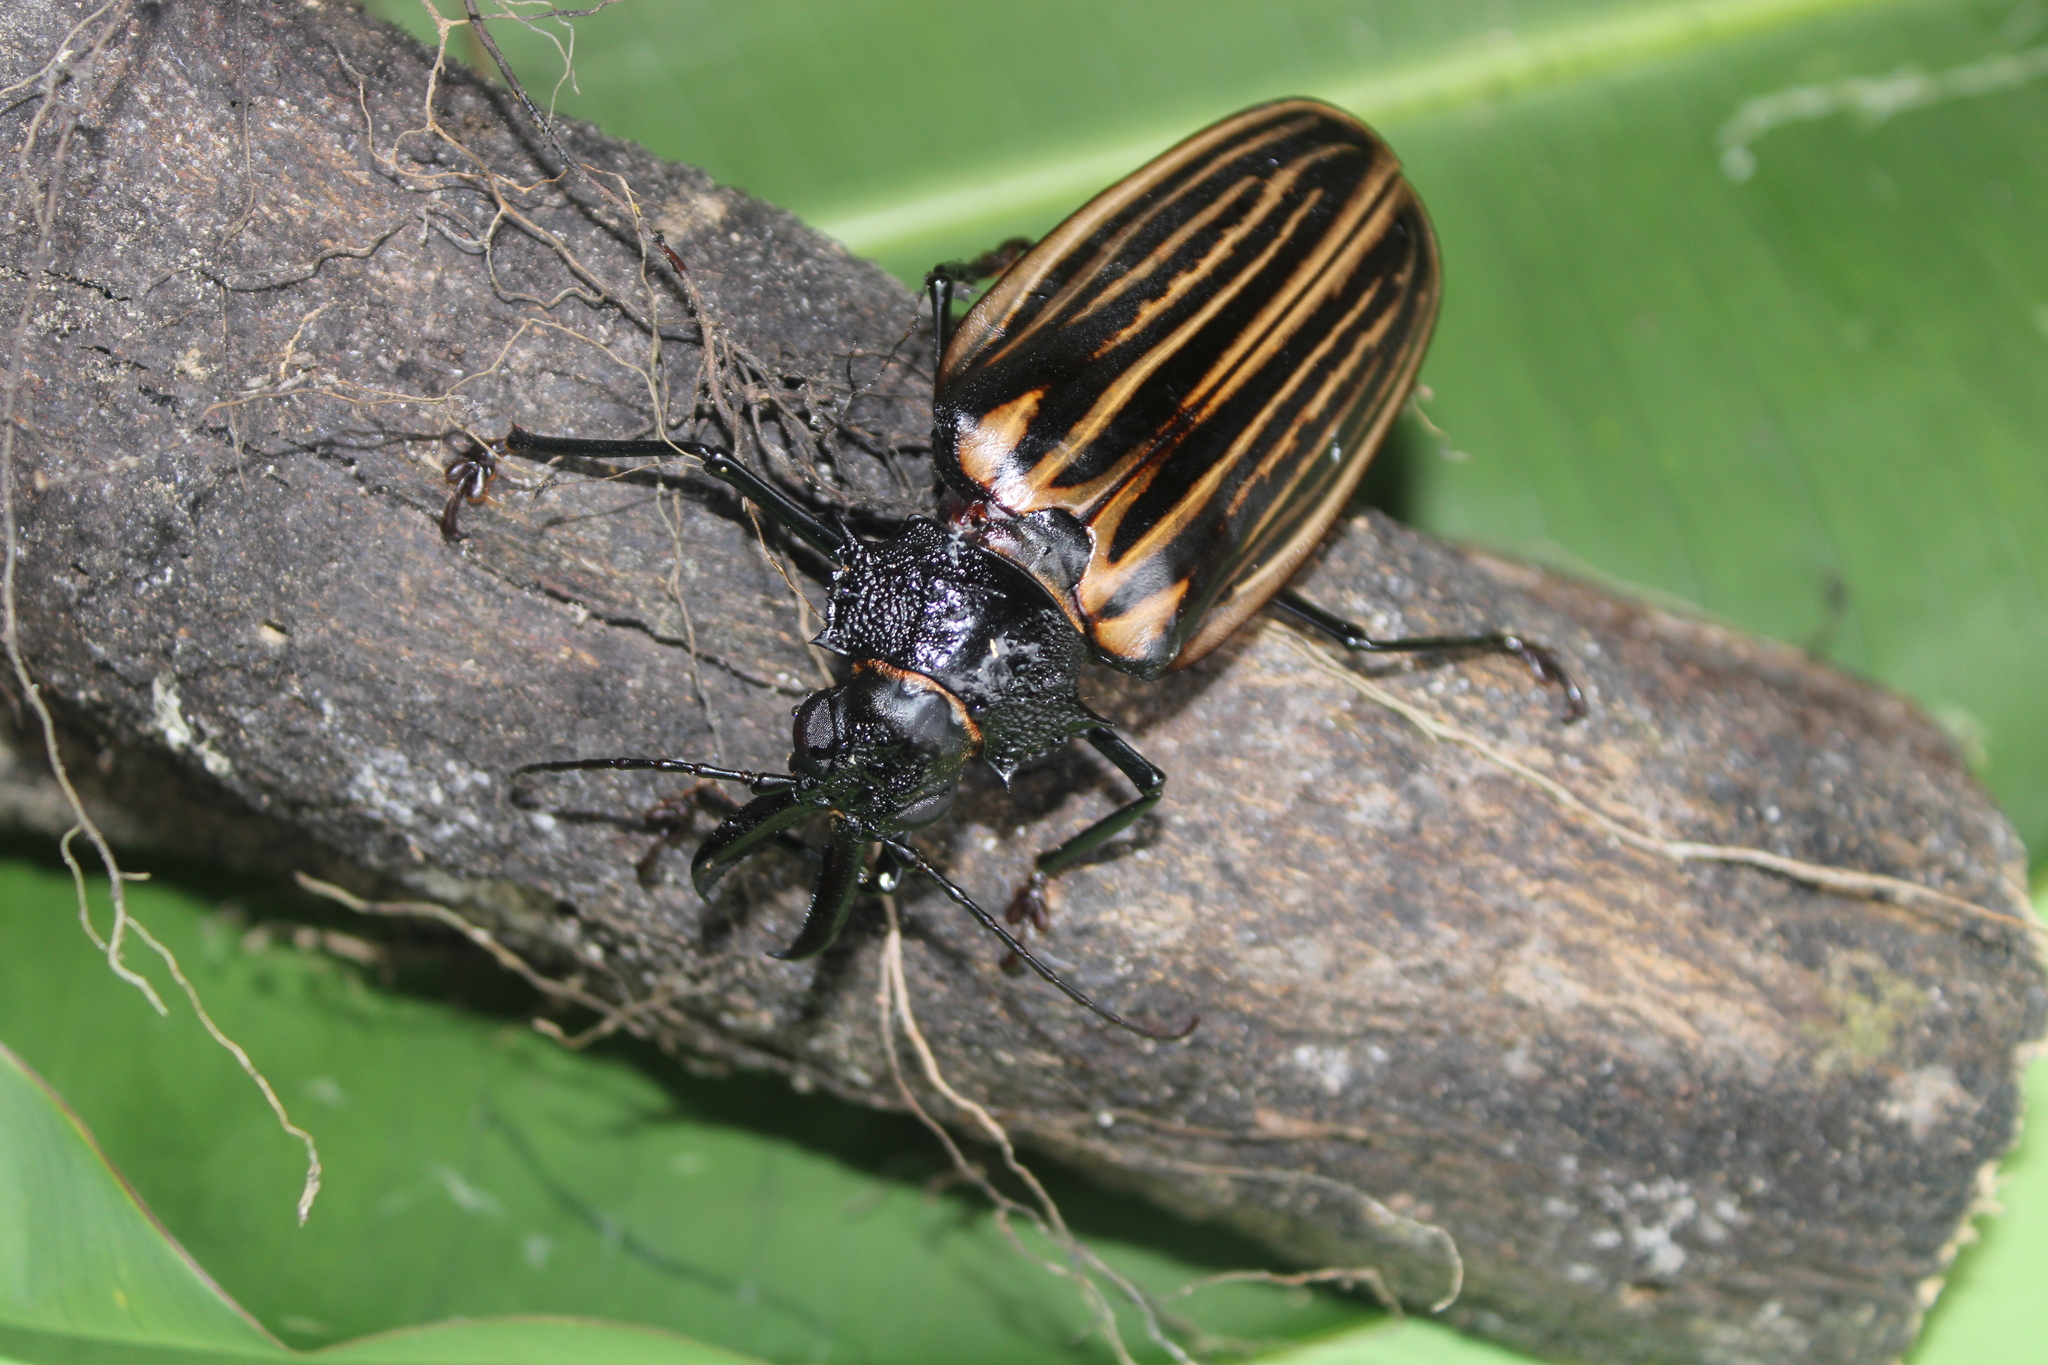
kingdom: Animalia
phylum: Arthropoda
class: Insecta
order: Coleoptera
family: Cerambycidae
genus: Macrodontia
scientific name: Macrodontia batesi
